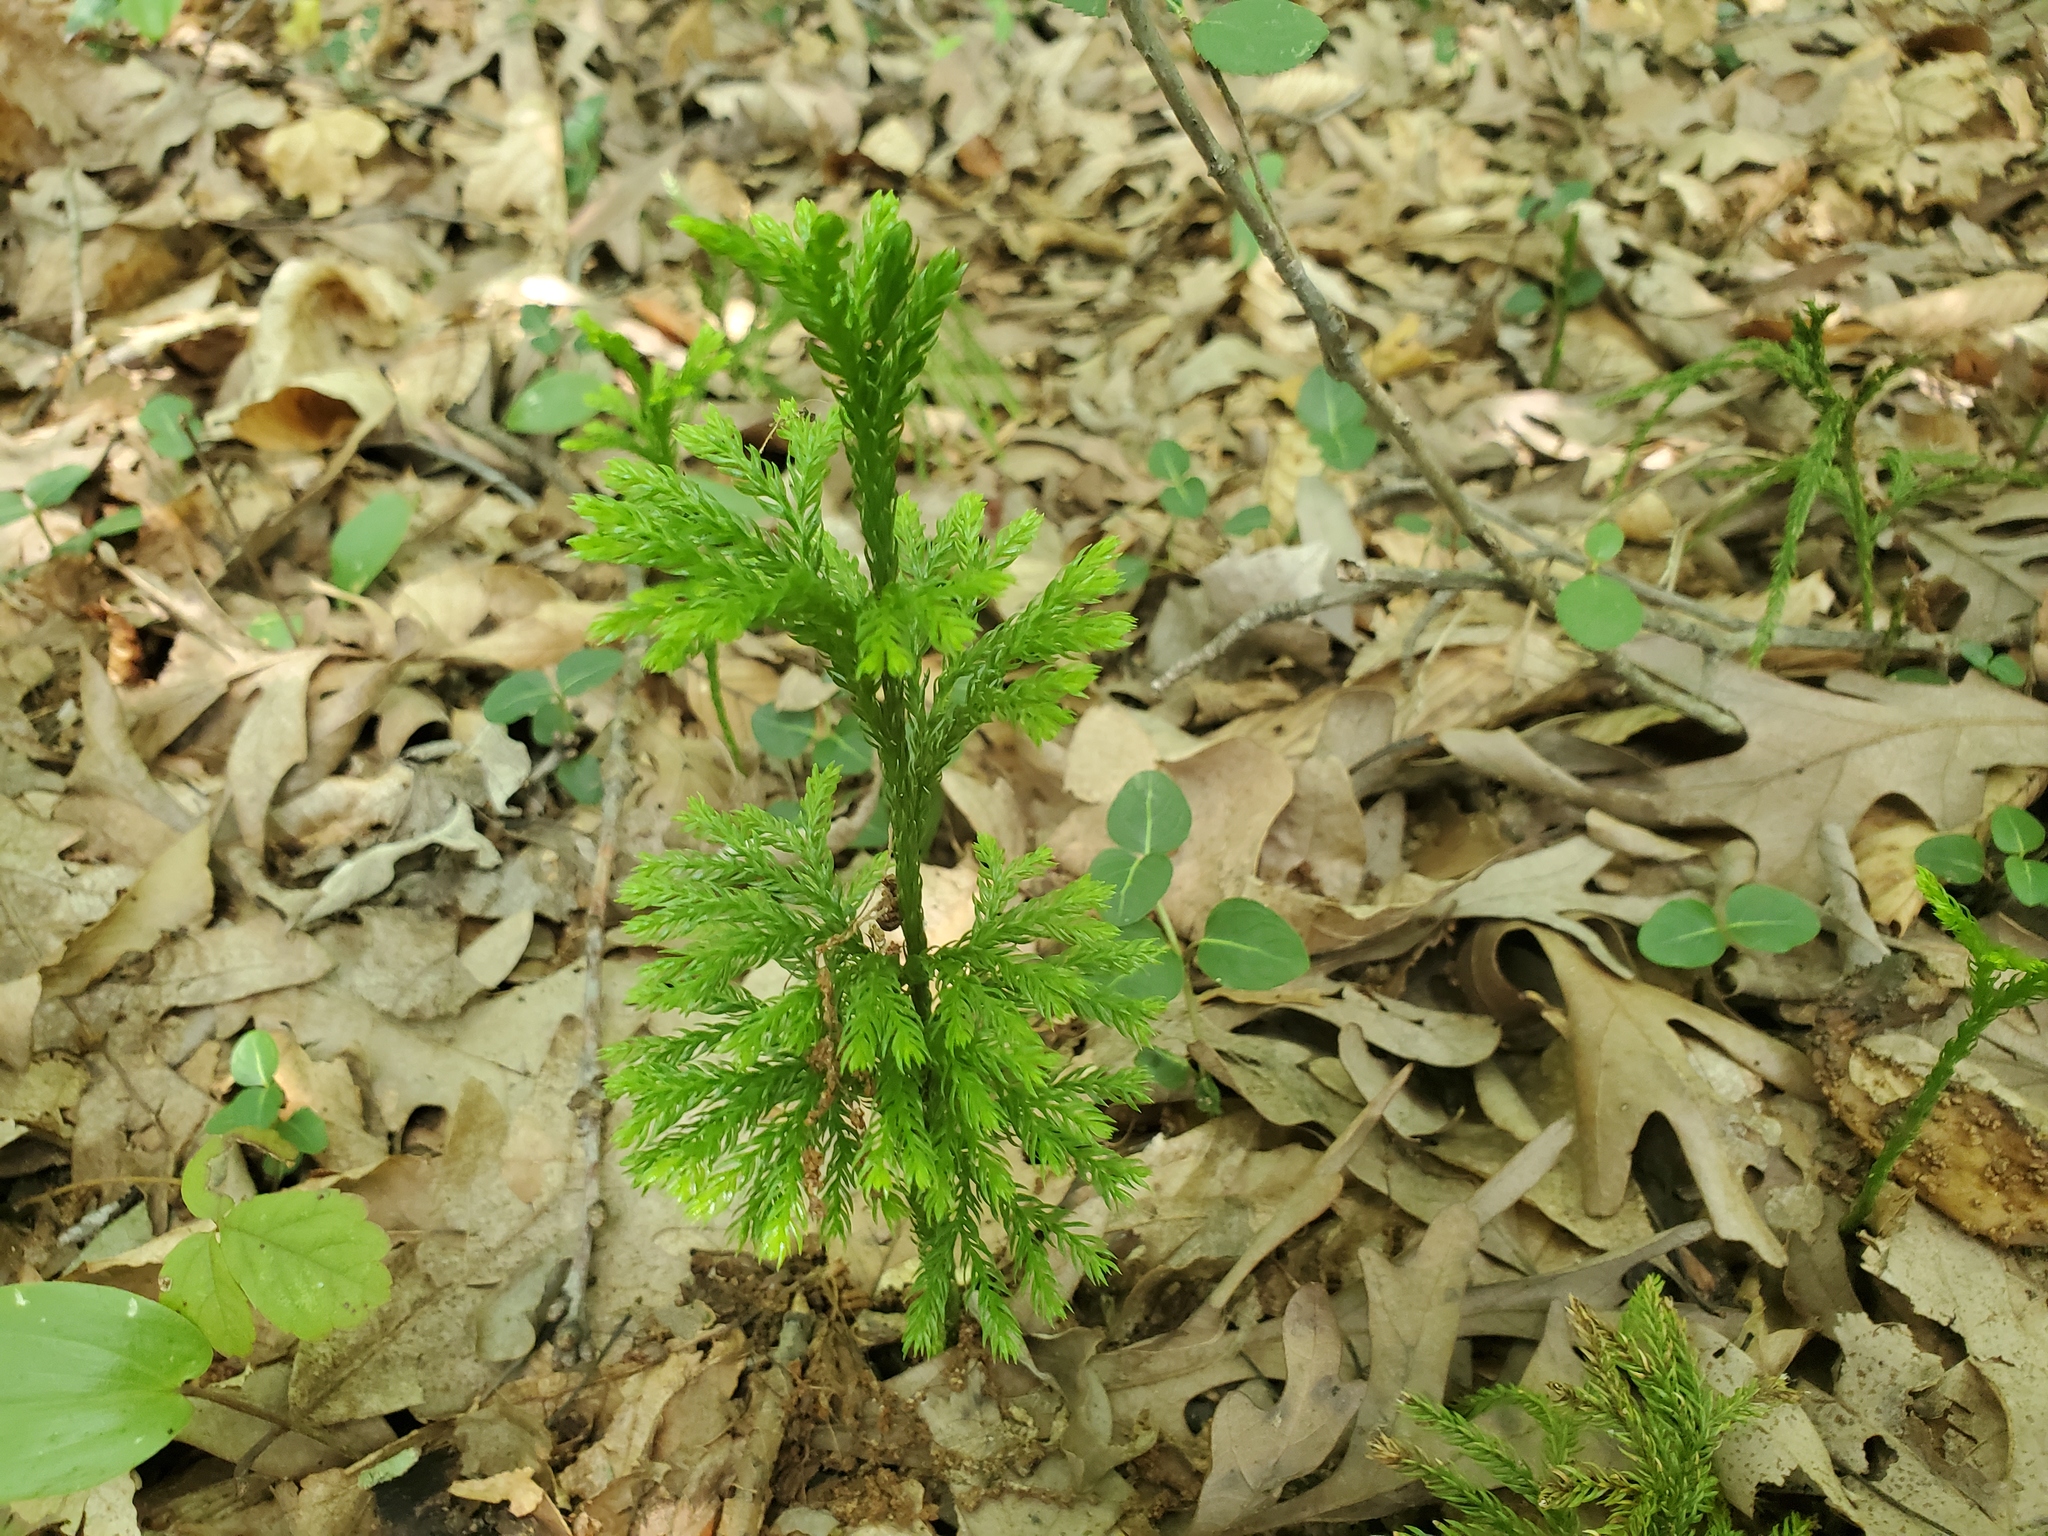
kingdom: Plantae
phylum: Tracheophyta
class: Lycopodiopsida
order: Lycopodiales
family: Lycopodiaceae
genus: Dendrolycopodium
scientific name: Dendrolycopodium obscurum
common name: Common ground-pine
